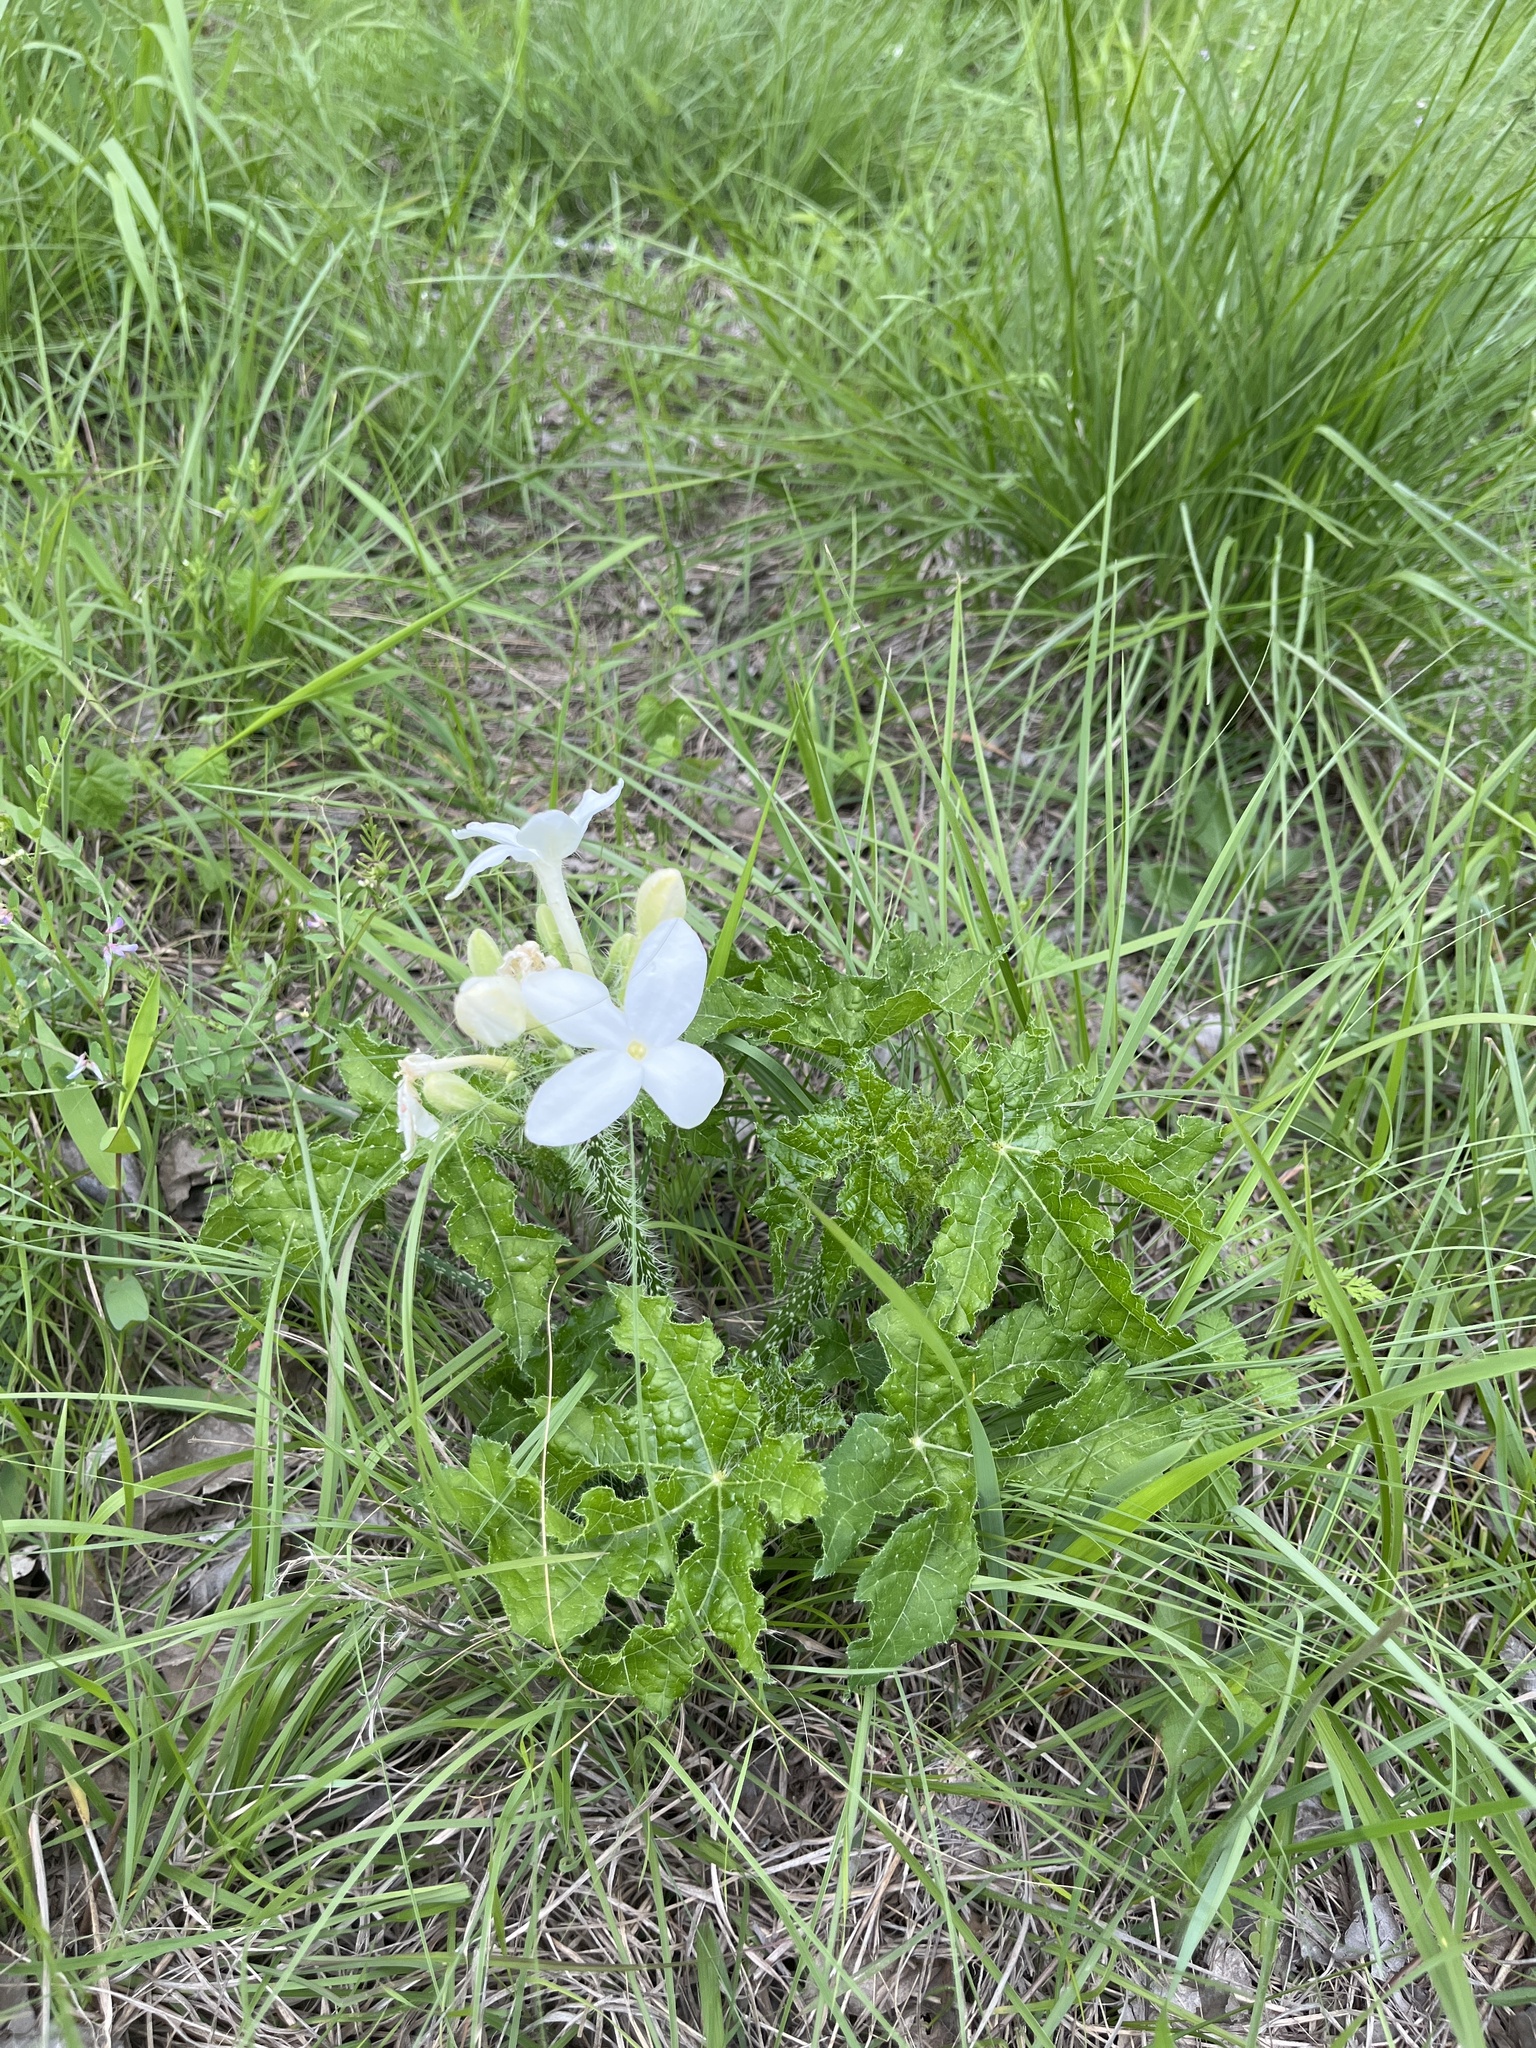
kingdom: Plantae
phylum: Tracheophyta
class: Magnoliopsida
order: Malpighiales
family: Euphorbiaceae
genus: Cnidoscolus
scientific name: Cnidoscolus texanus
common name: Texas bull-nettle
